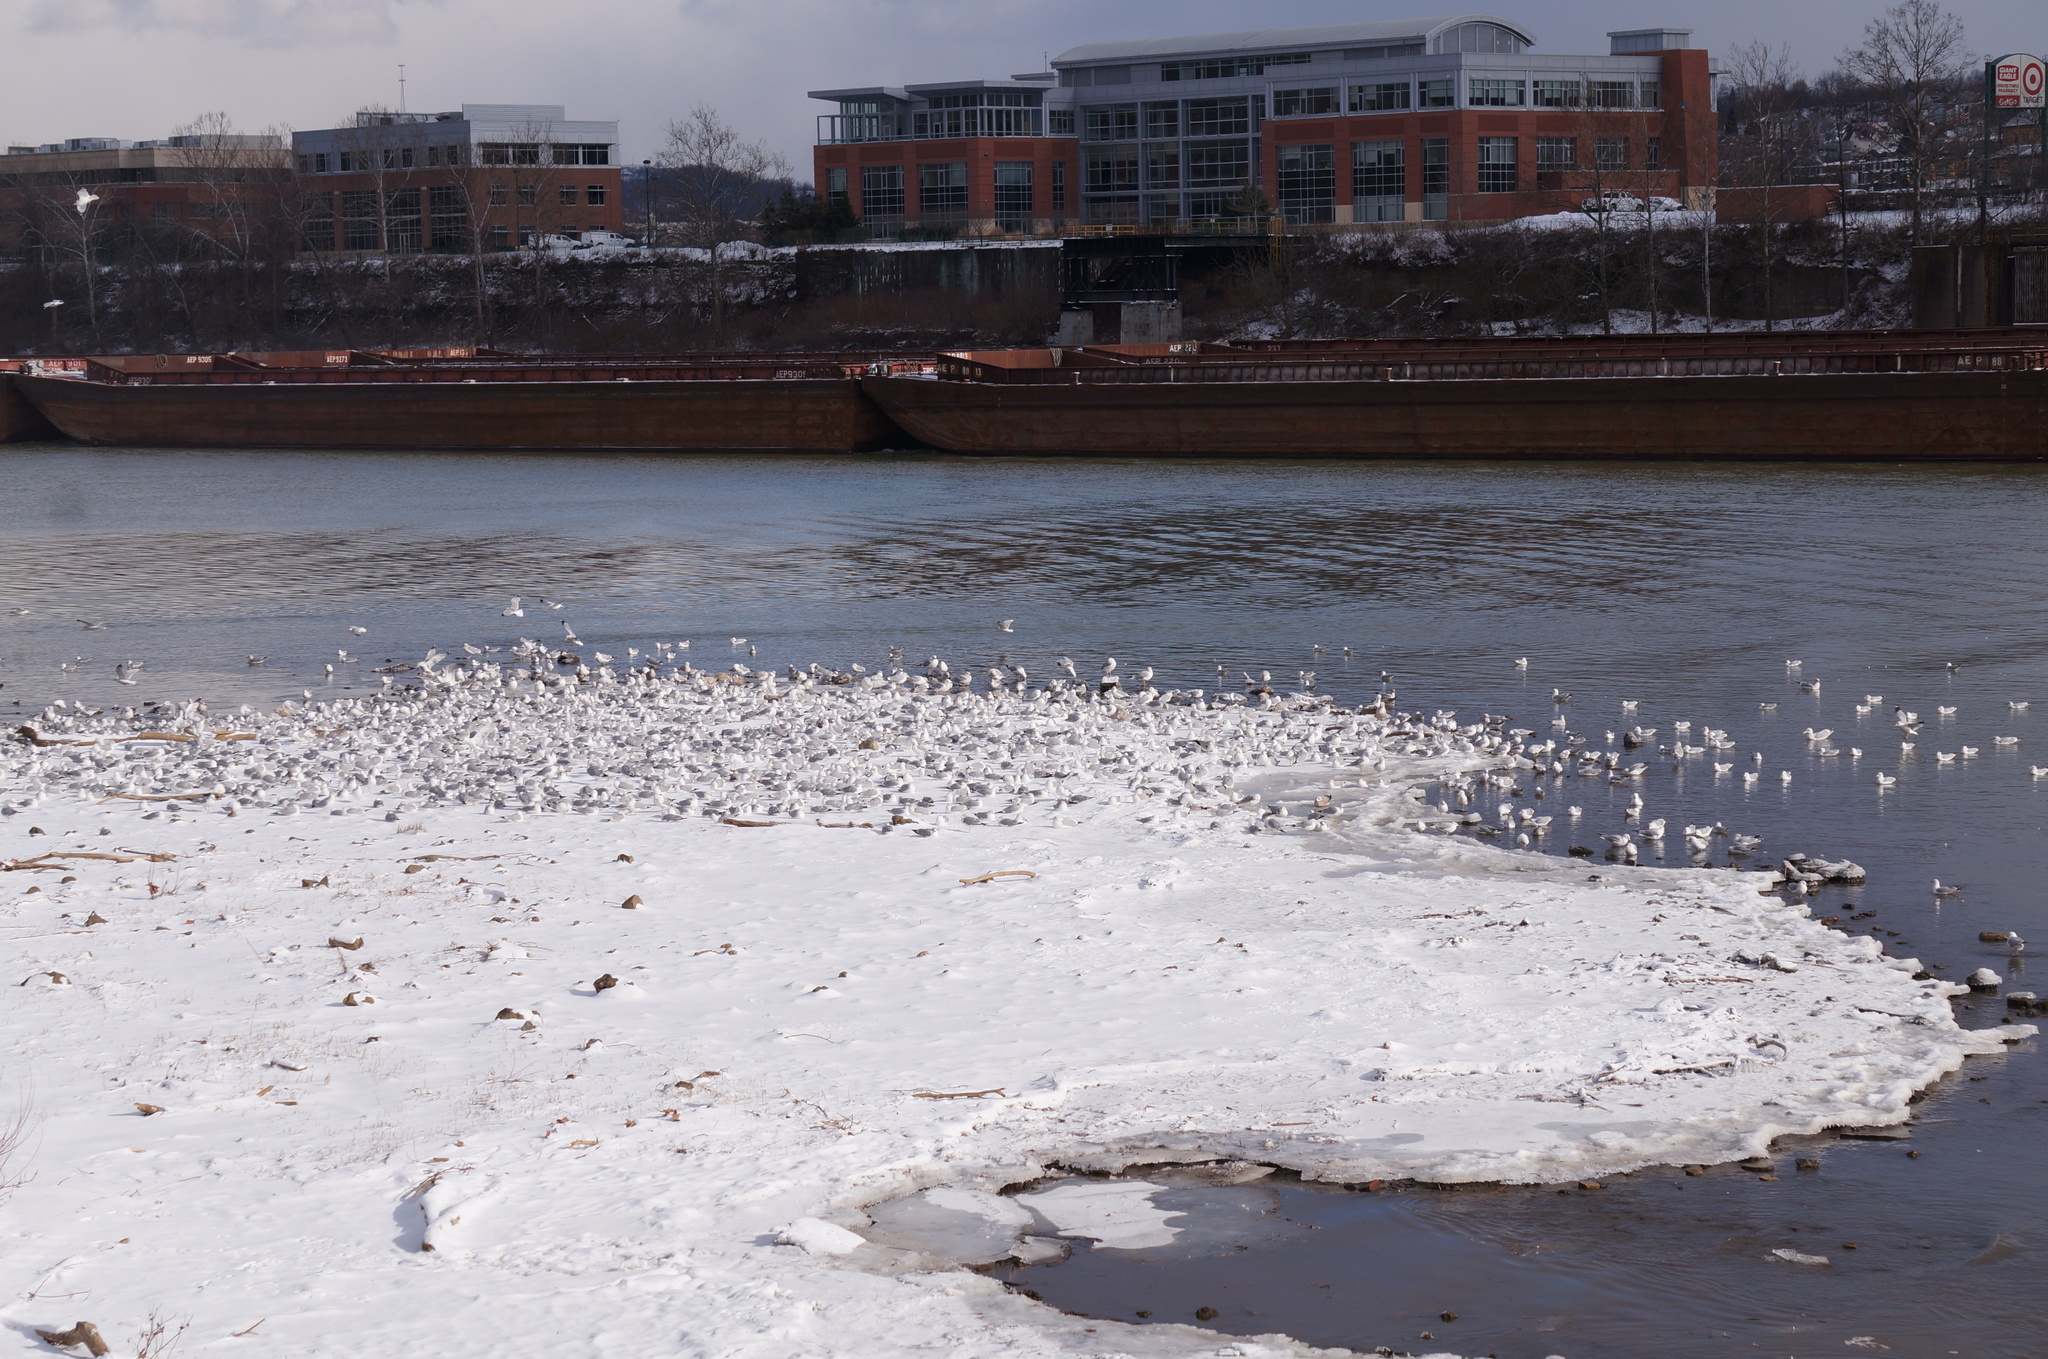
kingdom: Animalia
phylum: Chordata
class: Aves
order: Charadriiformes
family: Laridae
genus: Larus
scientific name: Larus delawarensis
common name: Ring-billed gull
